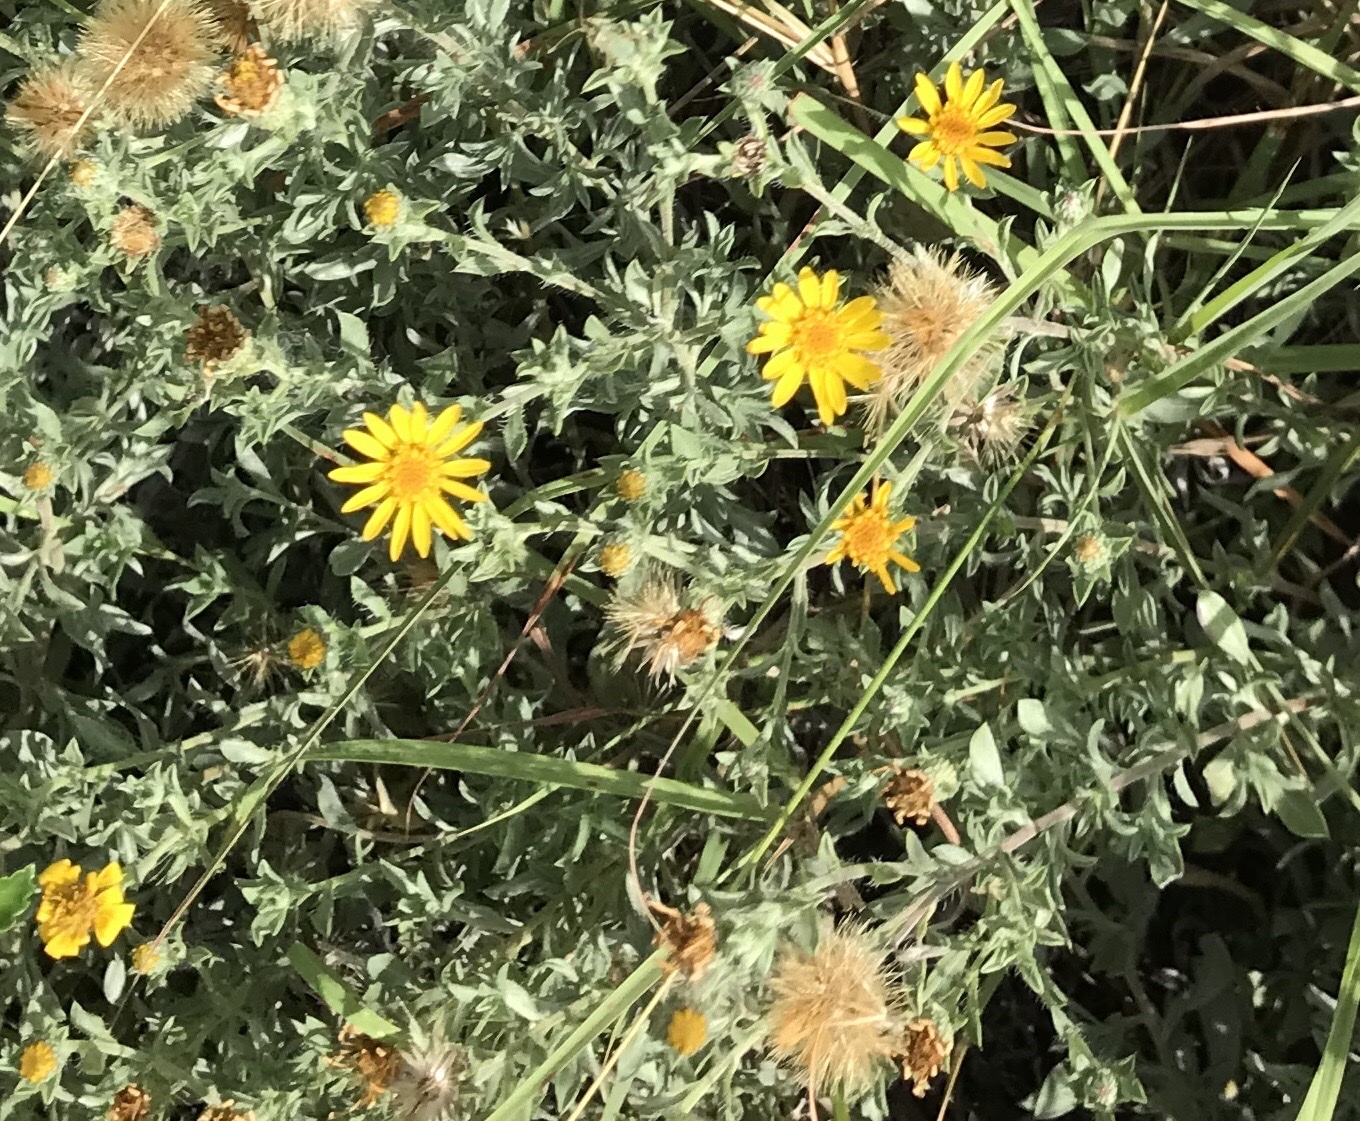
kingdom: Plantae
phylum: Tracheophyta
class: Magnoliopsida
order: Asterales
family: Asteraceae
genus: Heterotheca
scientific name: Heterotheca canescens
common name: Hoary golden-aster
